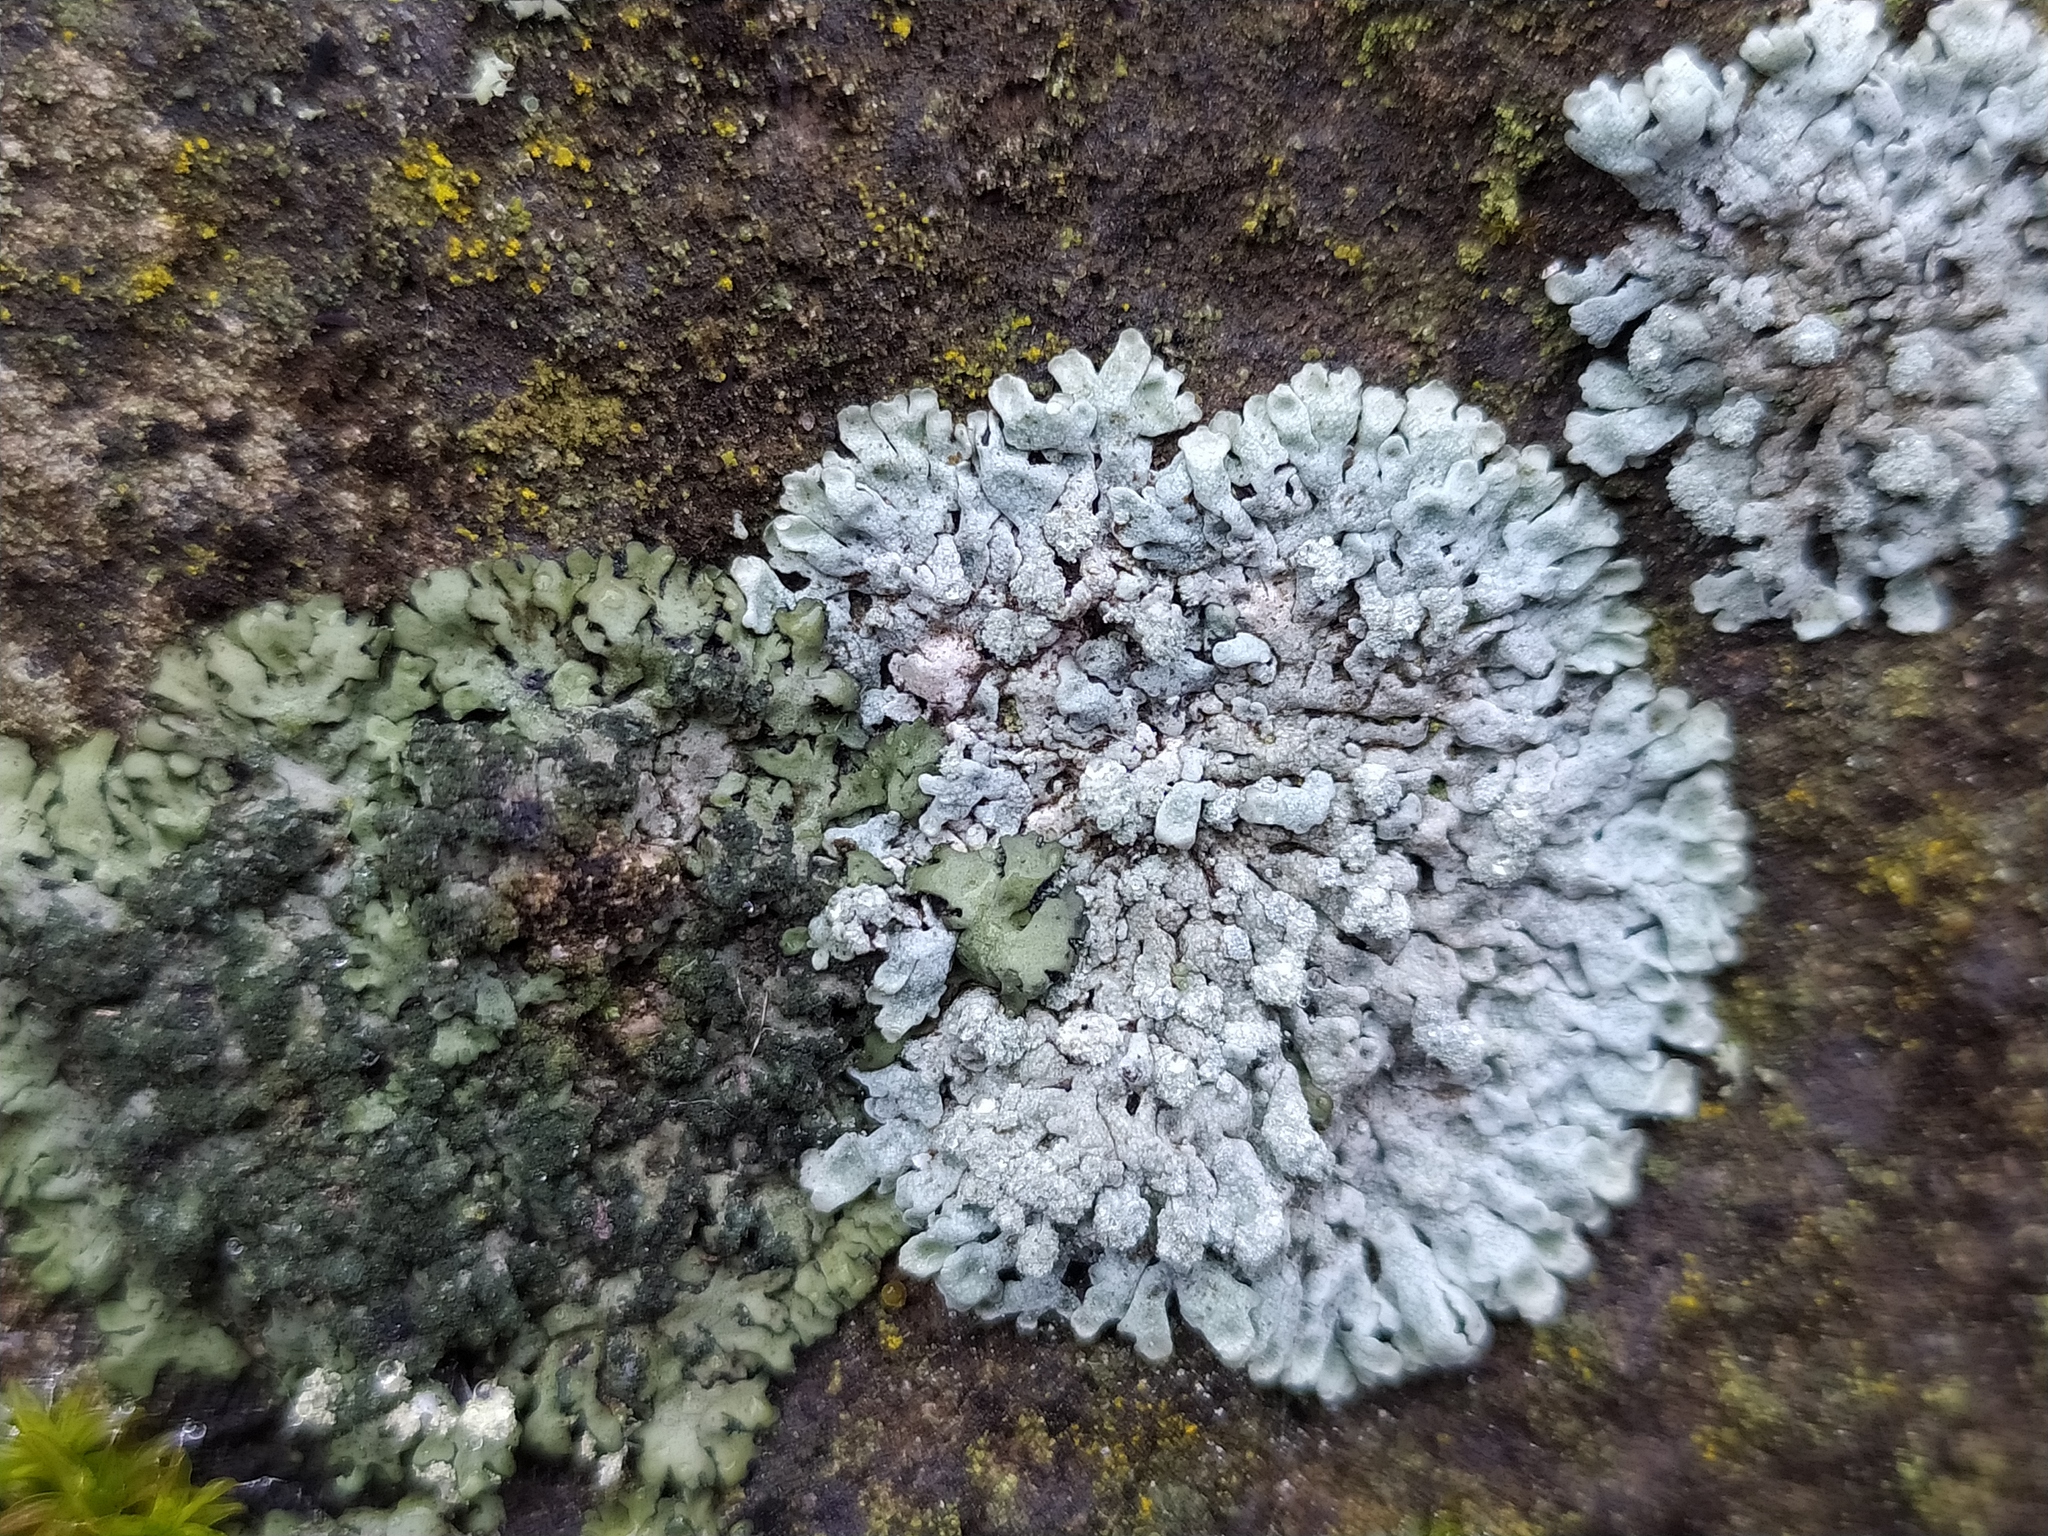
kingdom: Fungi
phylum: Ascomycota
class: Lecanoromycetes
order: Caliciales
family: Physciaceae
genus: Physcia
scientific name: Physcia caesia
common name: Blue-gray rosette lichen
